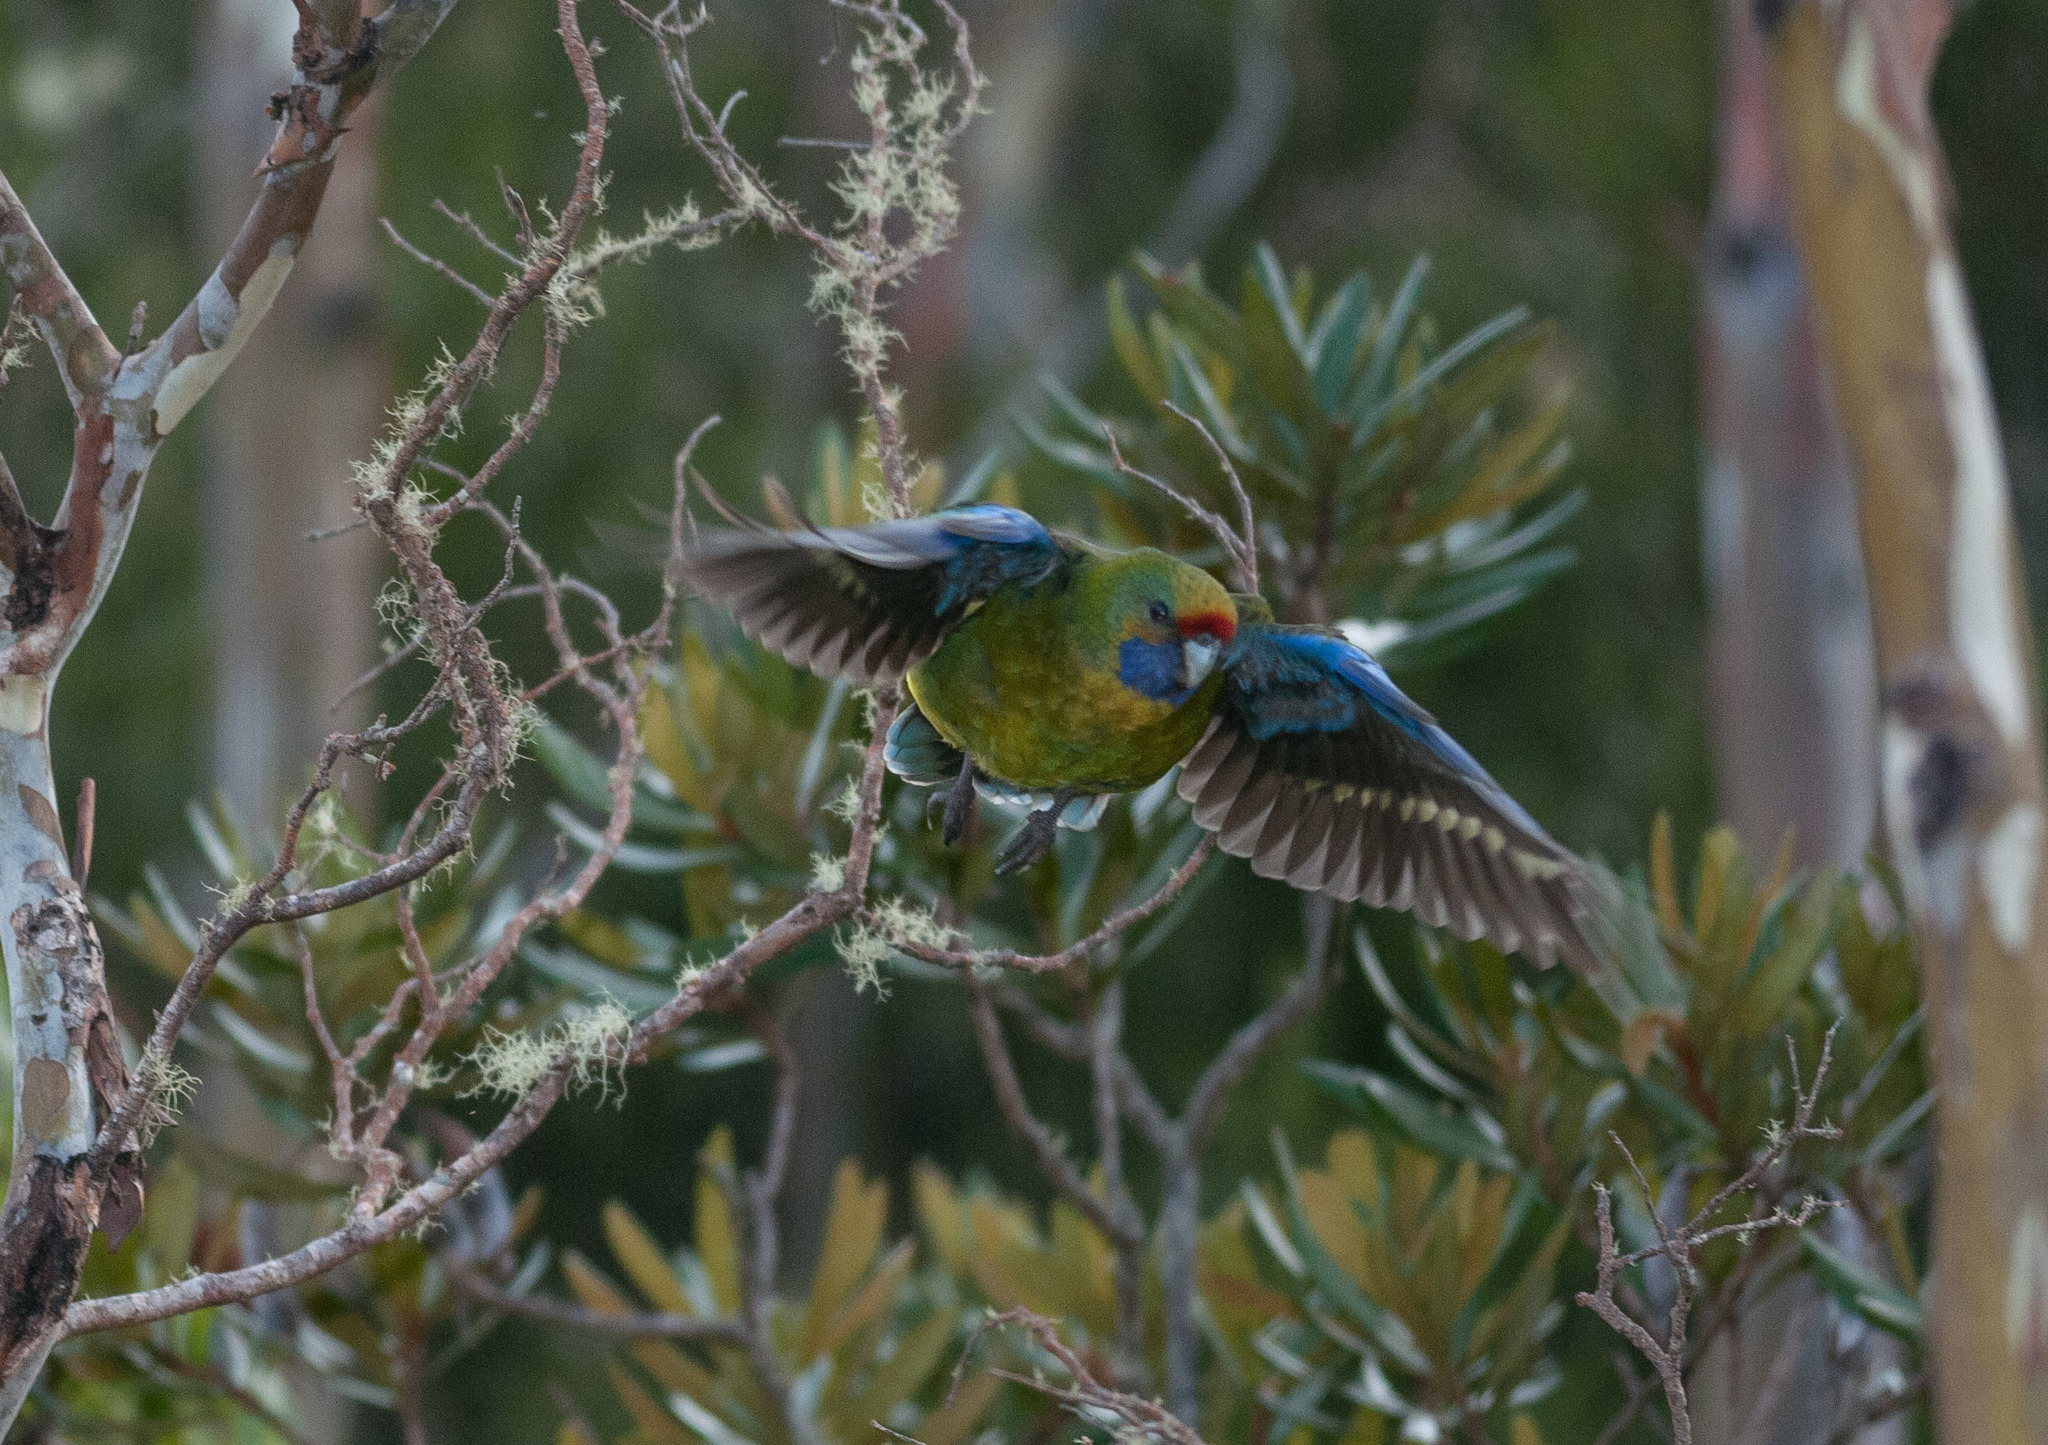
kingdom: Animalia
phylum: Chordata
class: Aves
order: Psittaciformes
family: Psittacidae
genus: Platycercus
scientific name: Platycercus caledonicus
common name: Green rosella
